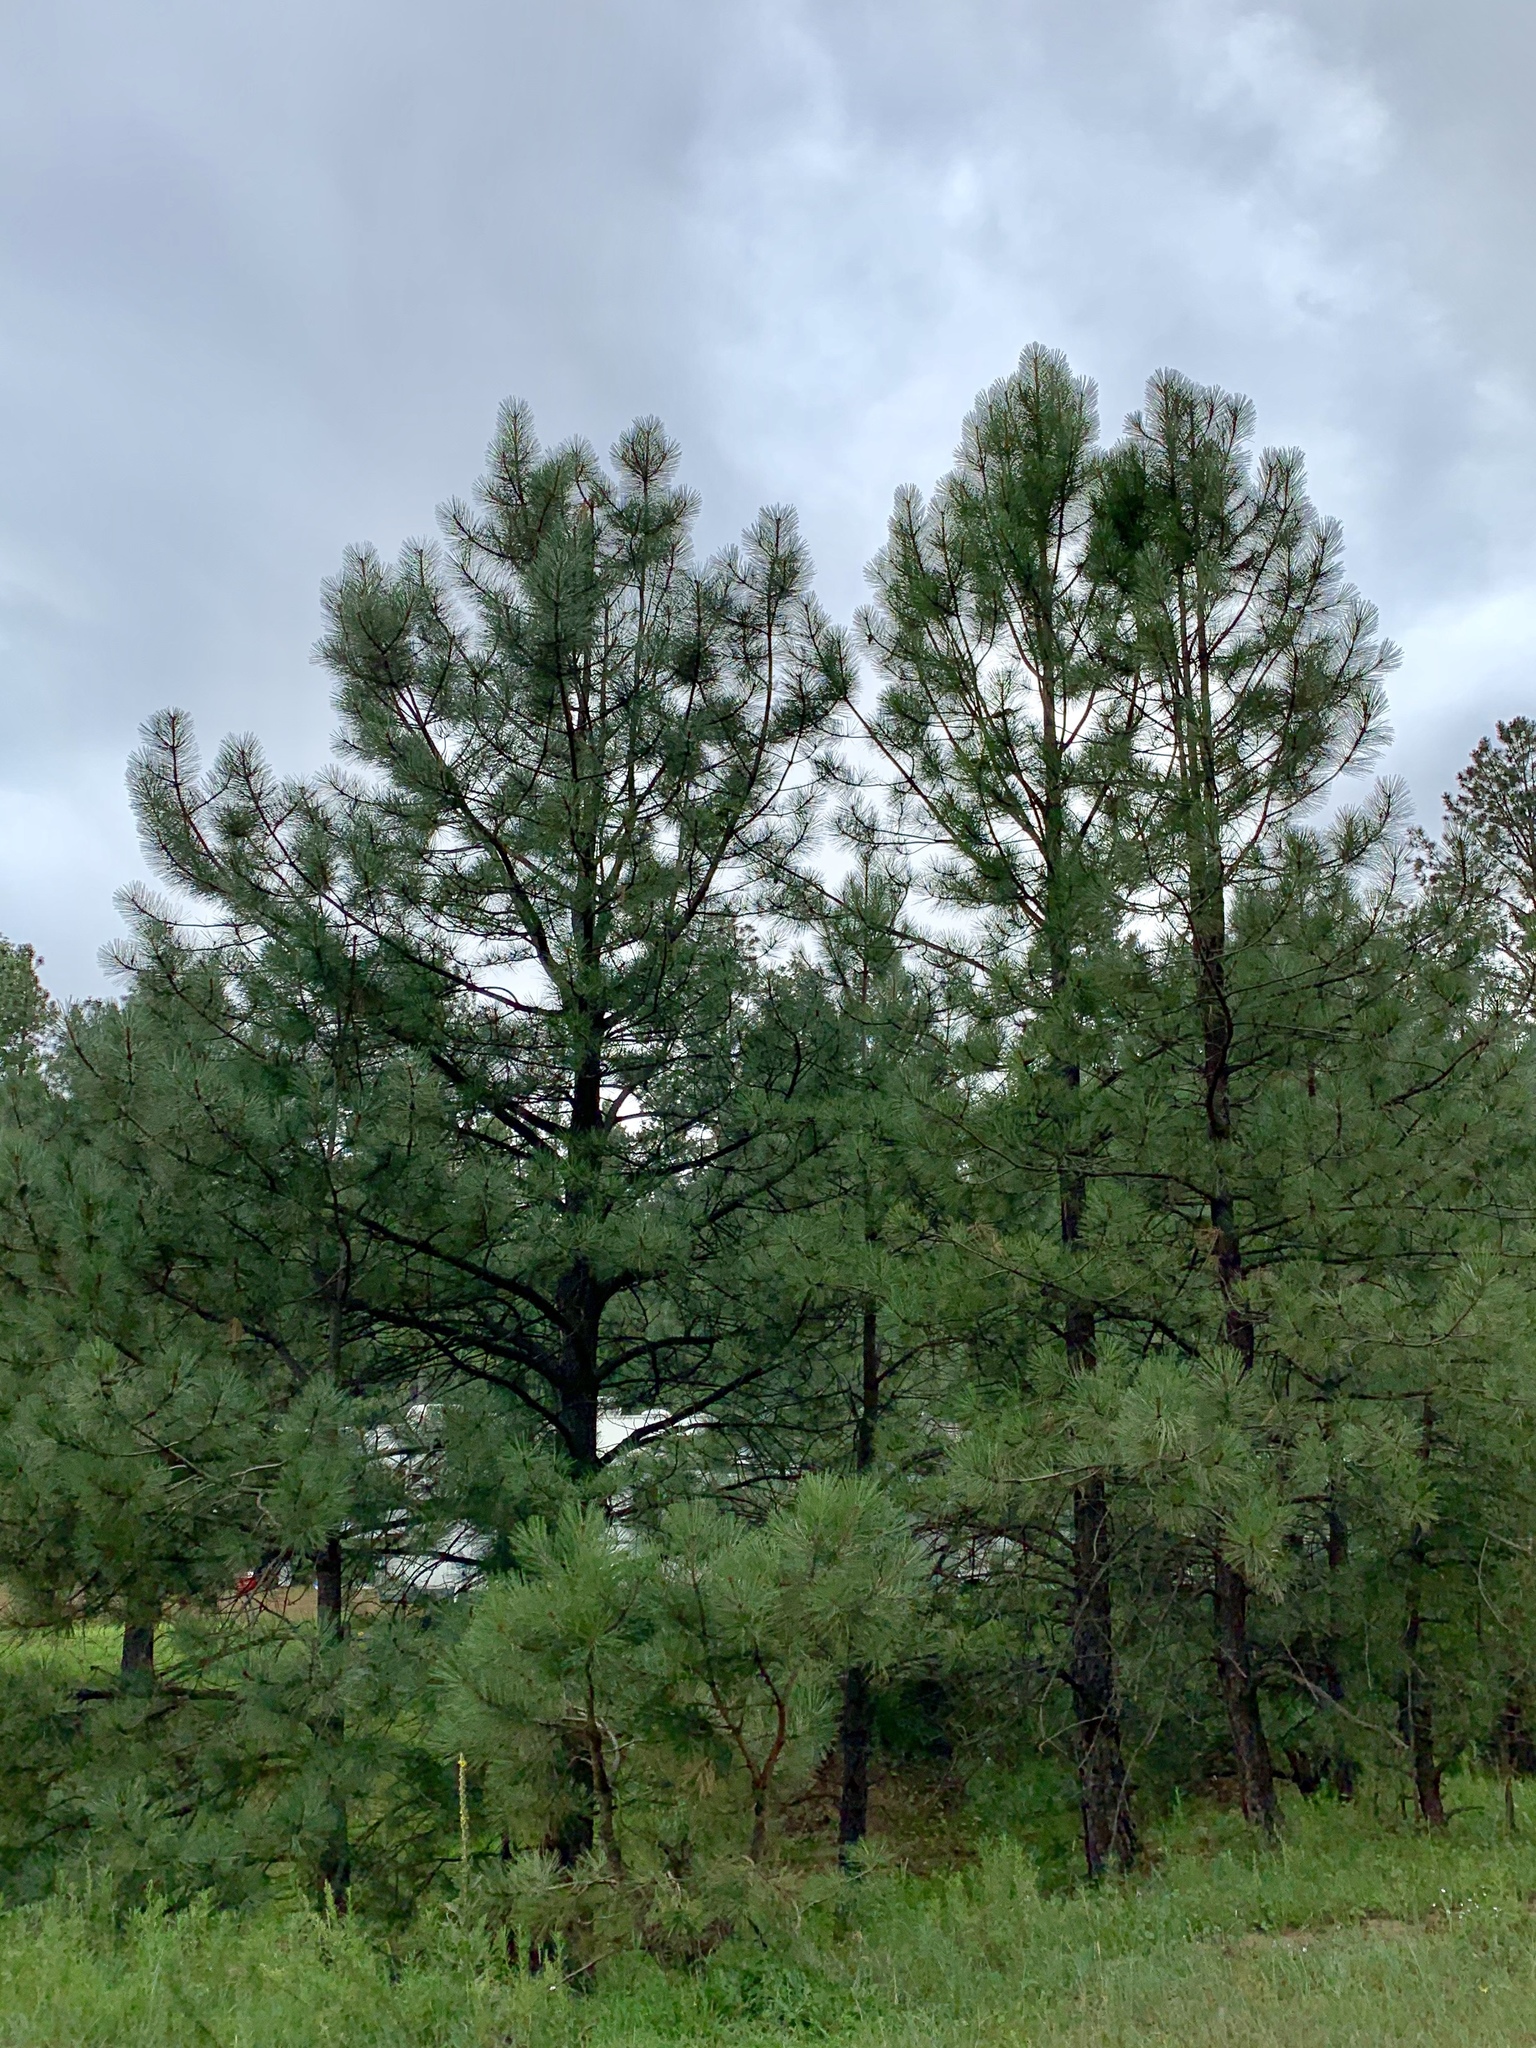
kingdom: Plantae
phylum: Tracheophyta
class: Pinopsida
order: Pinales
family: Pinaceae
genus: Pinus
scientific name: Pinus ponderosa
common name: Western yellow-pine
